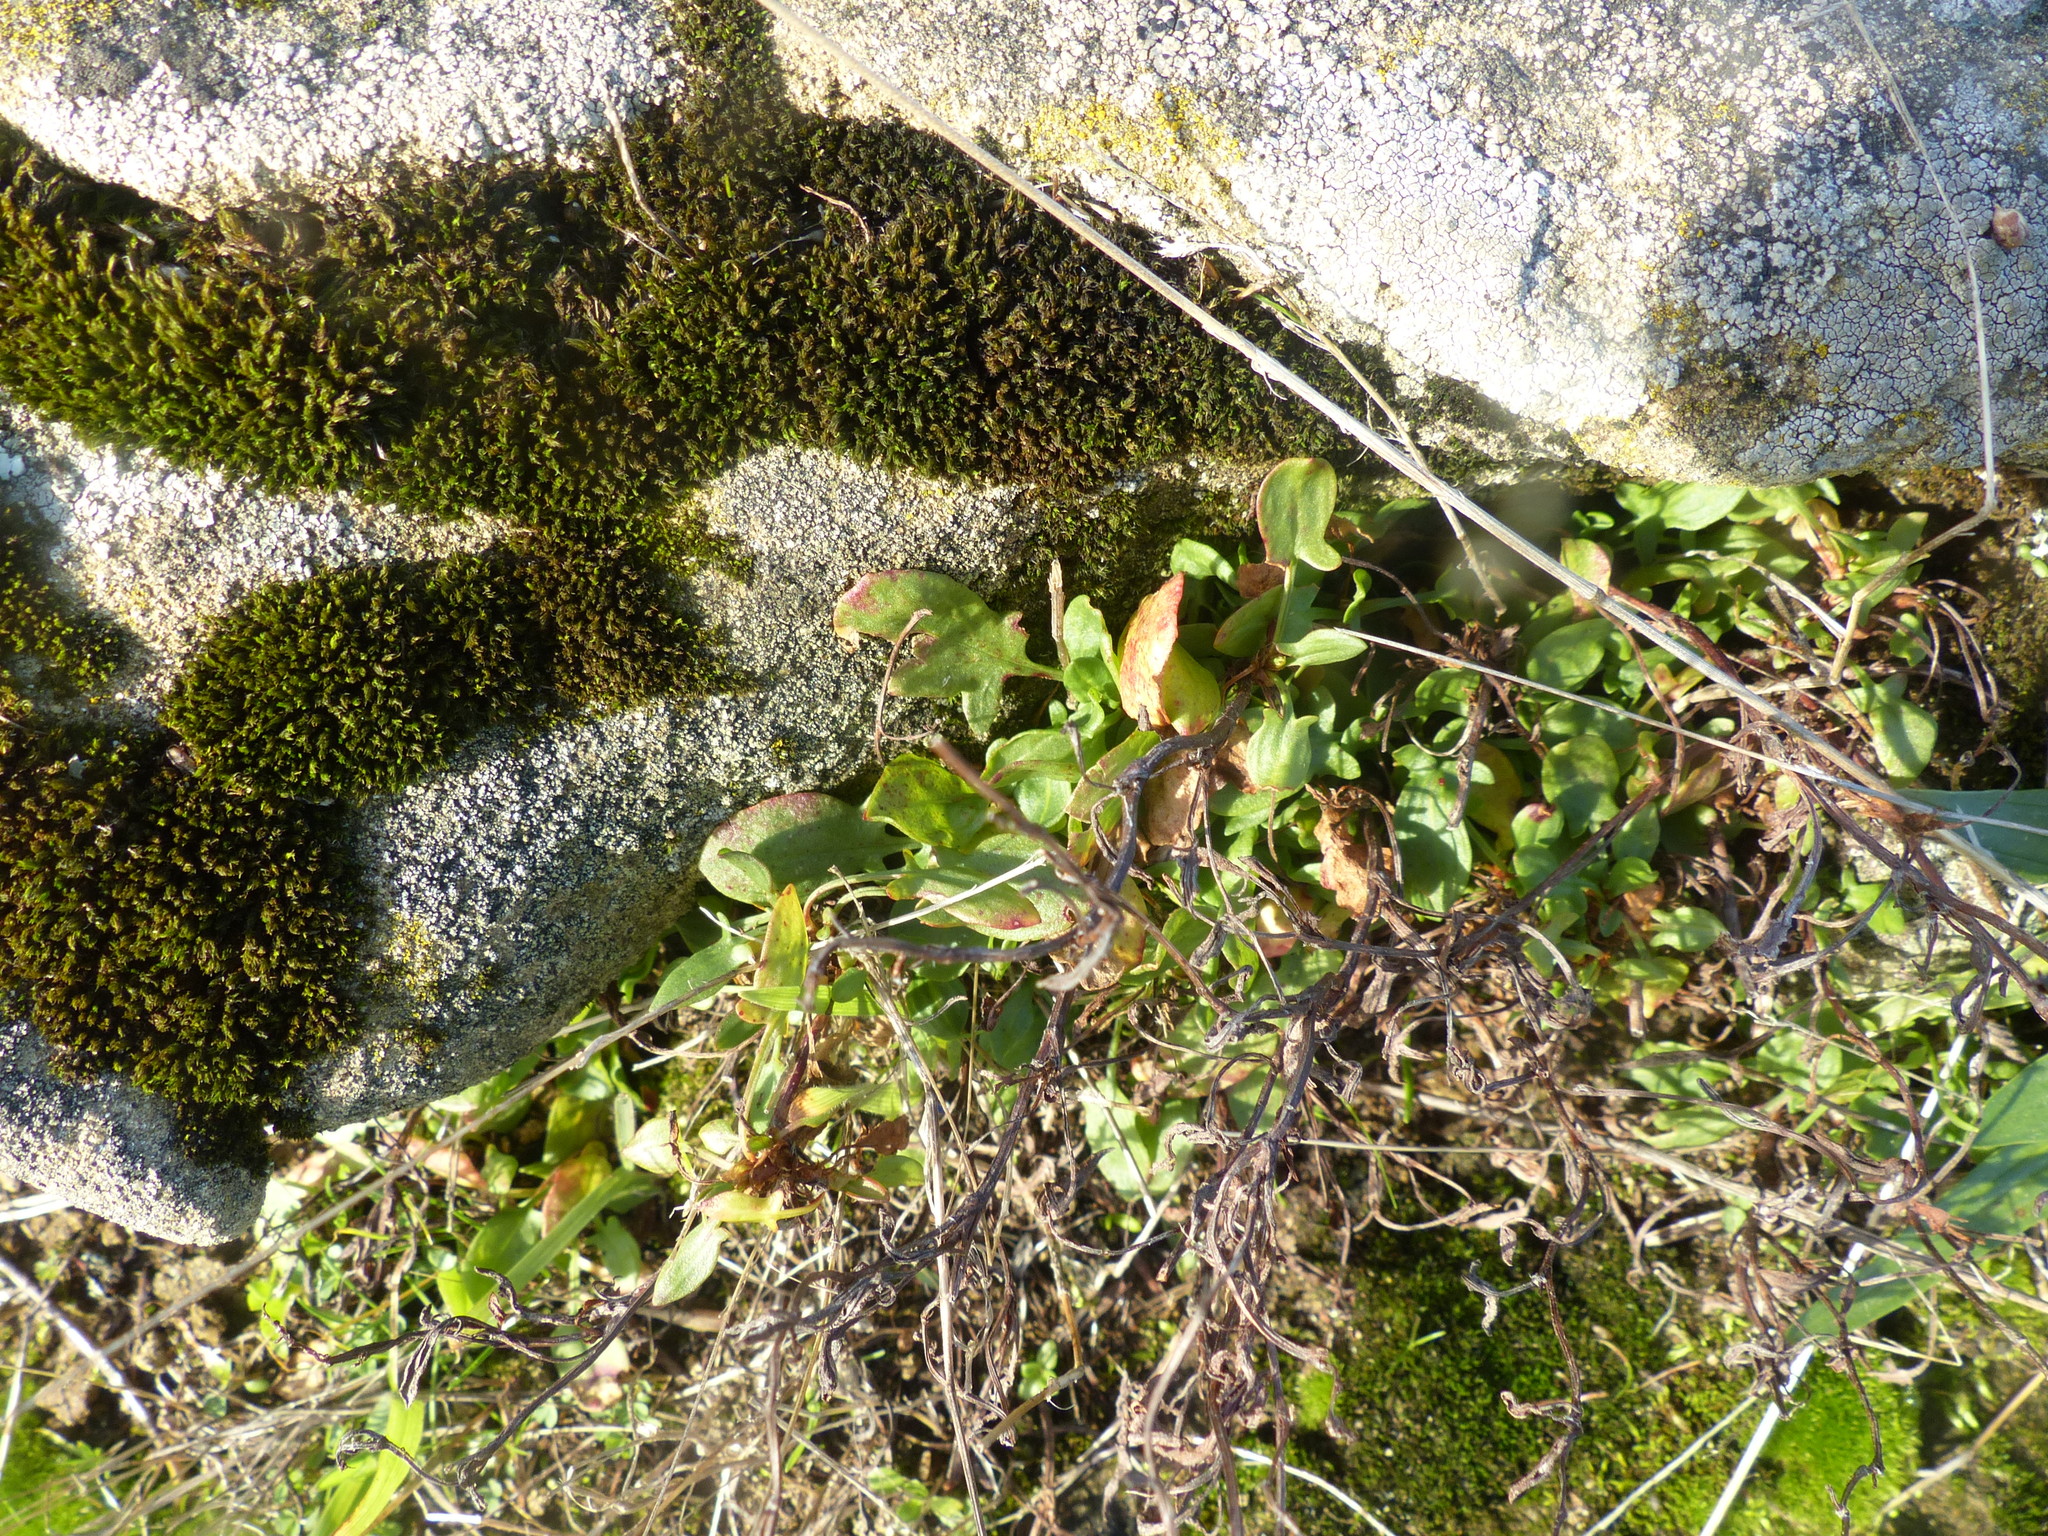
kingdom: Plantae
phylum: Tracheophyta
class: Magnoliopsida
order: Caryophyllales
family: Polygonaceae
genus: Rumex
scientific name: Rumex acetosella
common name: Common sheep sorrel
